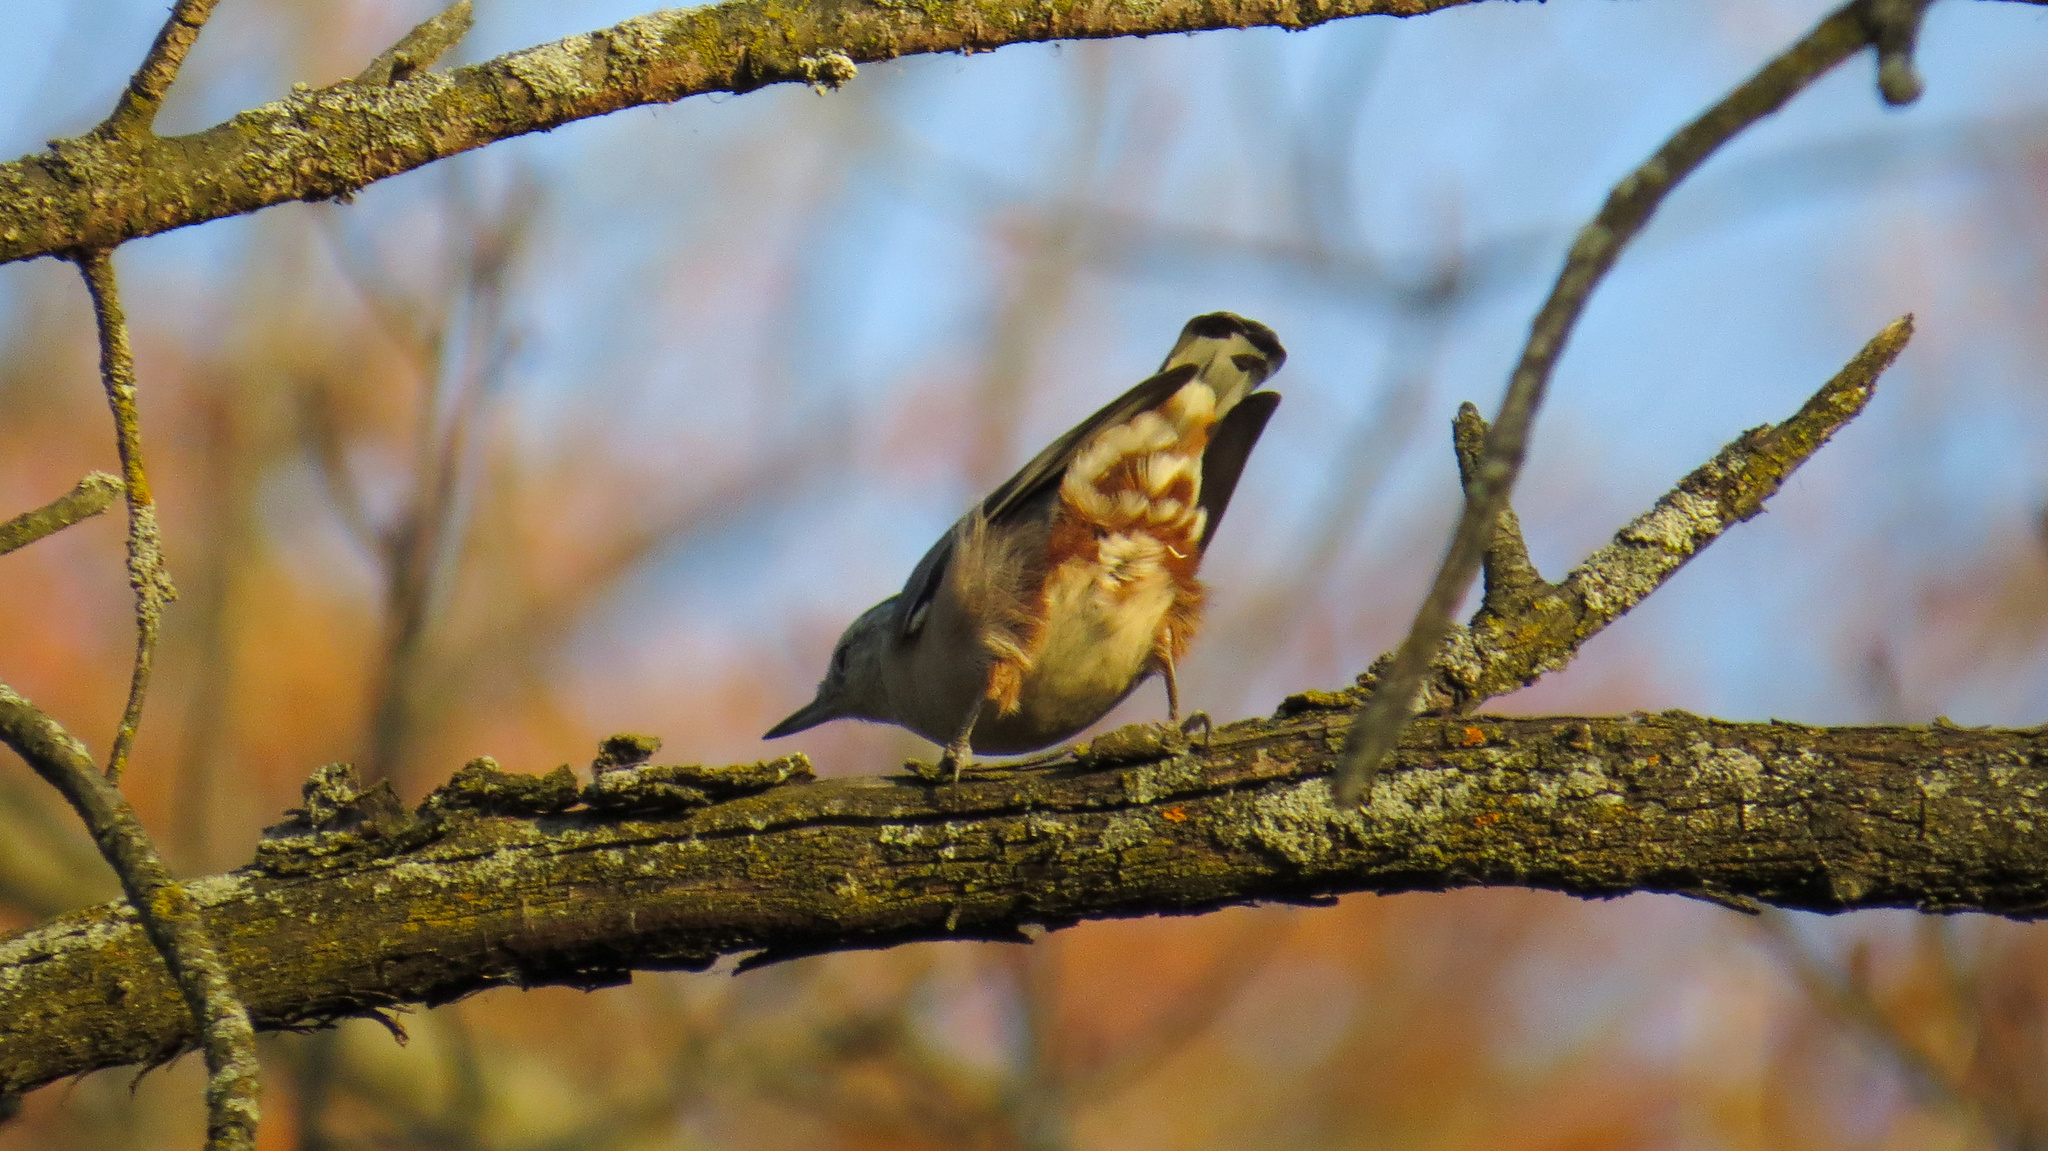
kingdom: Animalia
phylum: Chordata
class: Aves
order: Passeriformes
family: Sittidae
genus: Sitta
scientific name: Sitta carolinensis
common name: White-breasted nuthatch
